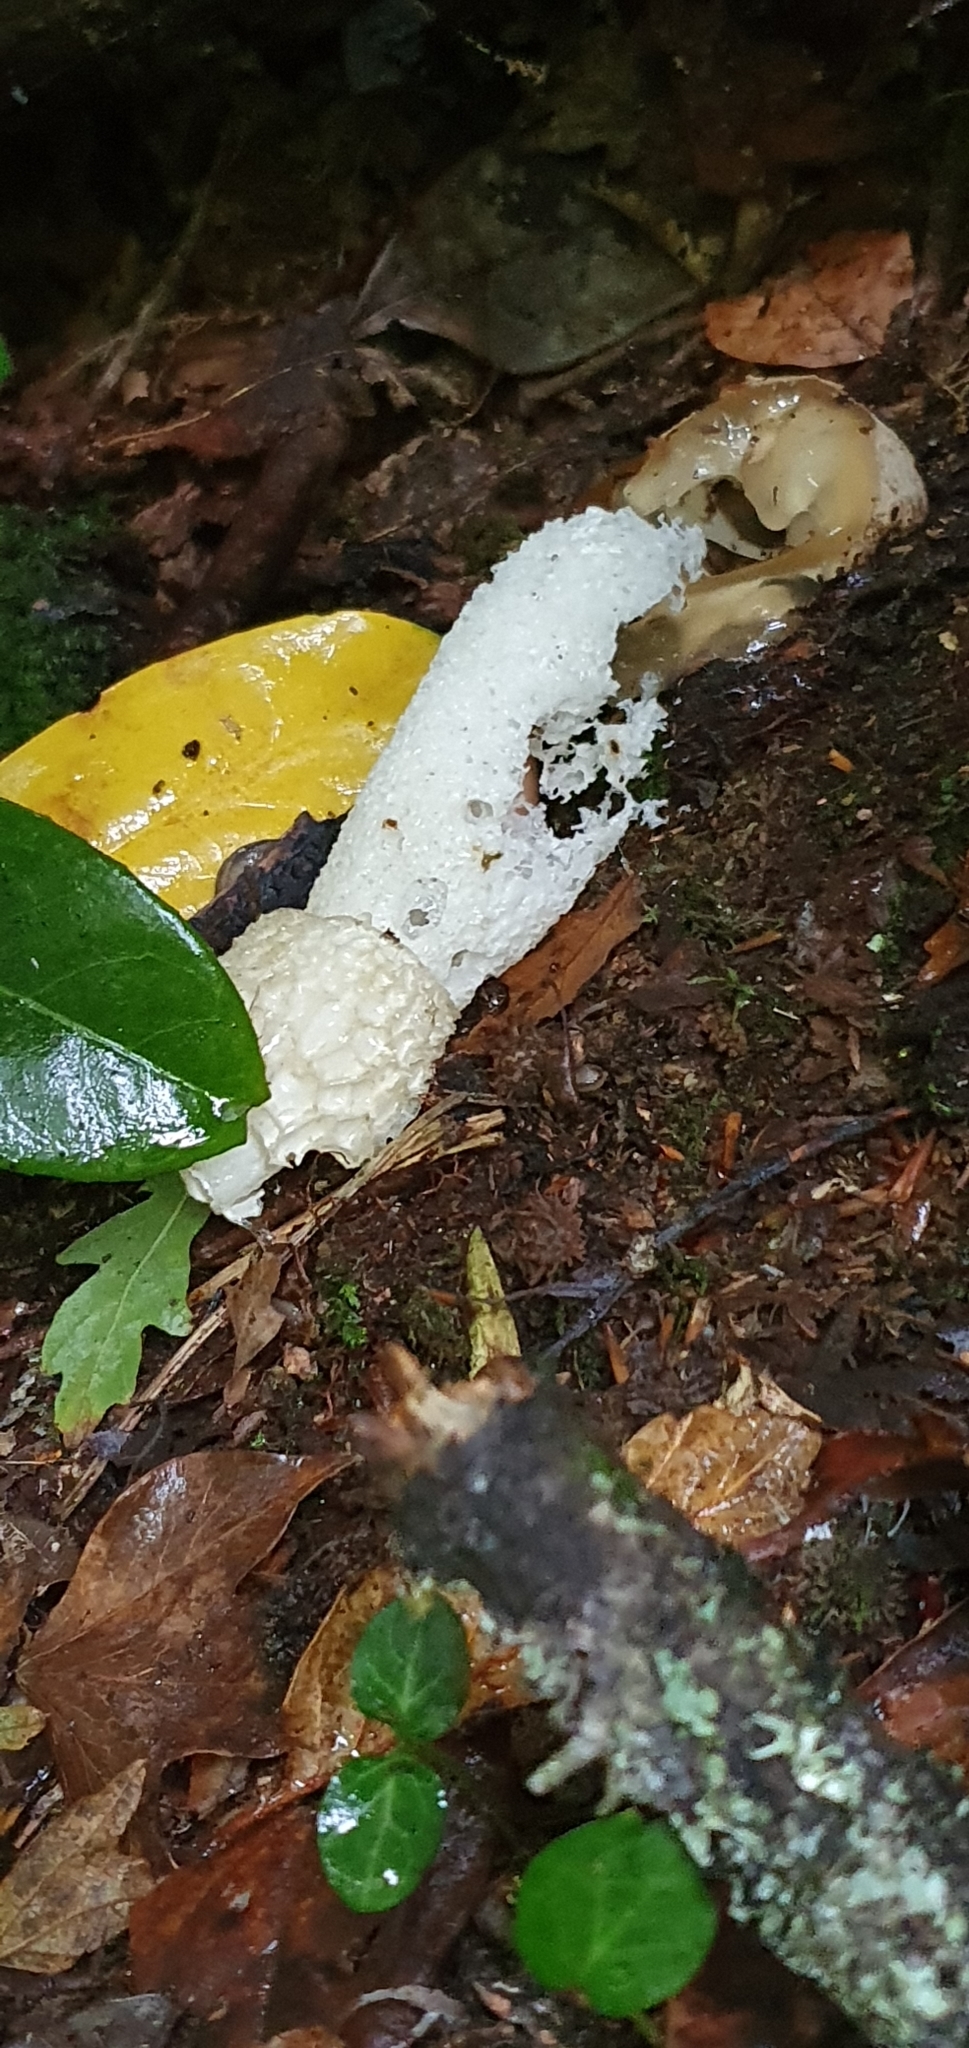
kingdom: Fungi
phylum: Basidiomycota
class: Agaricomycetes
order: Phallales
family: Phallaceae
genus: Phallus
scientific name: Phallus impudicus
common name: Common stinkhorn
